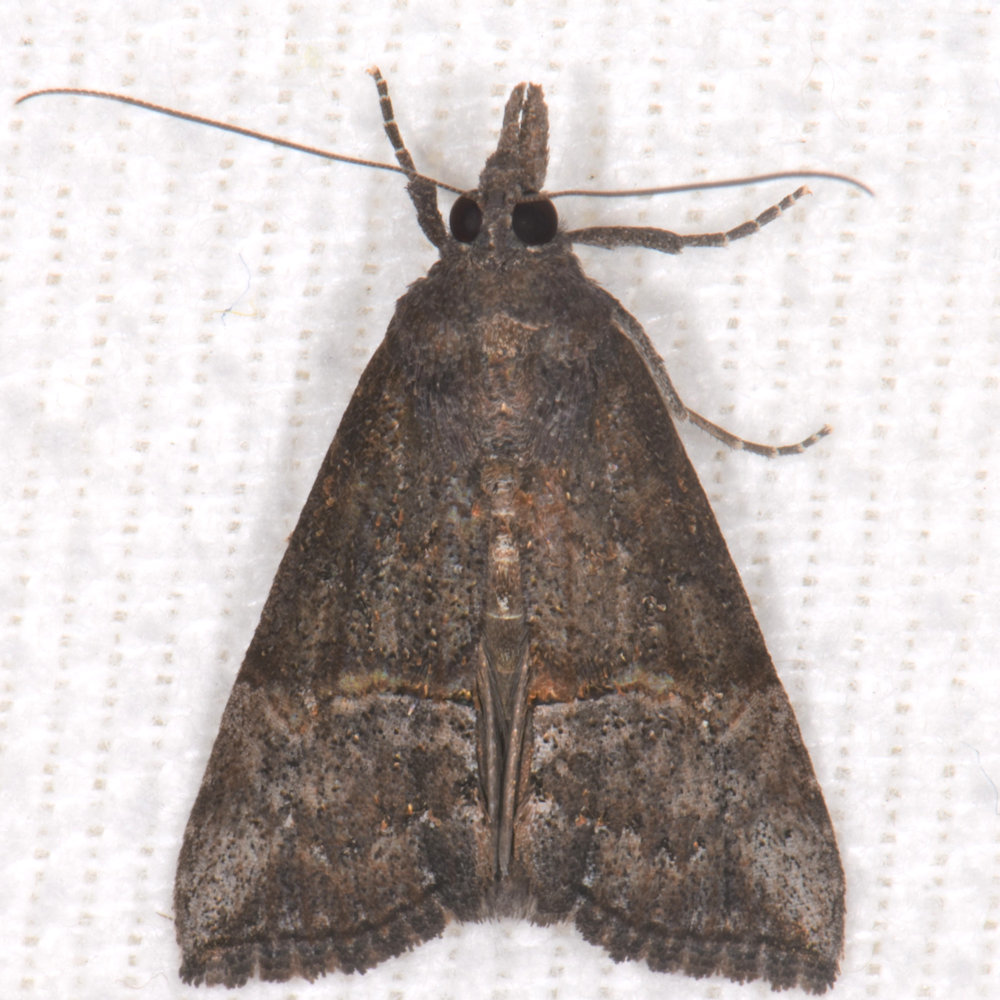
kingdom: Animalia
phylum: Arthropoda
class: Insecta
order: Lepidoptera
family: Erebidae
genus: Hypena
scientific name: Hypena scabra
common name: Green cloverworm
